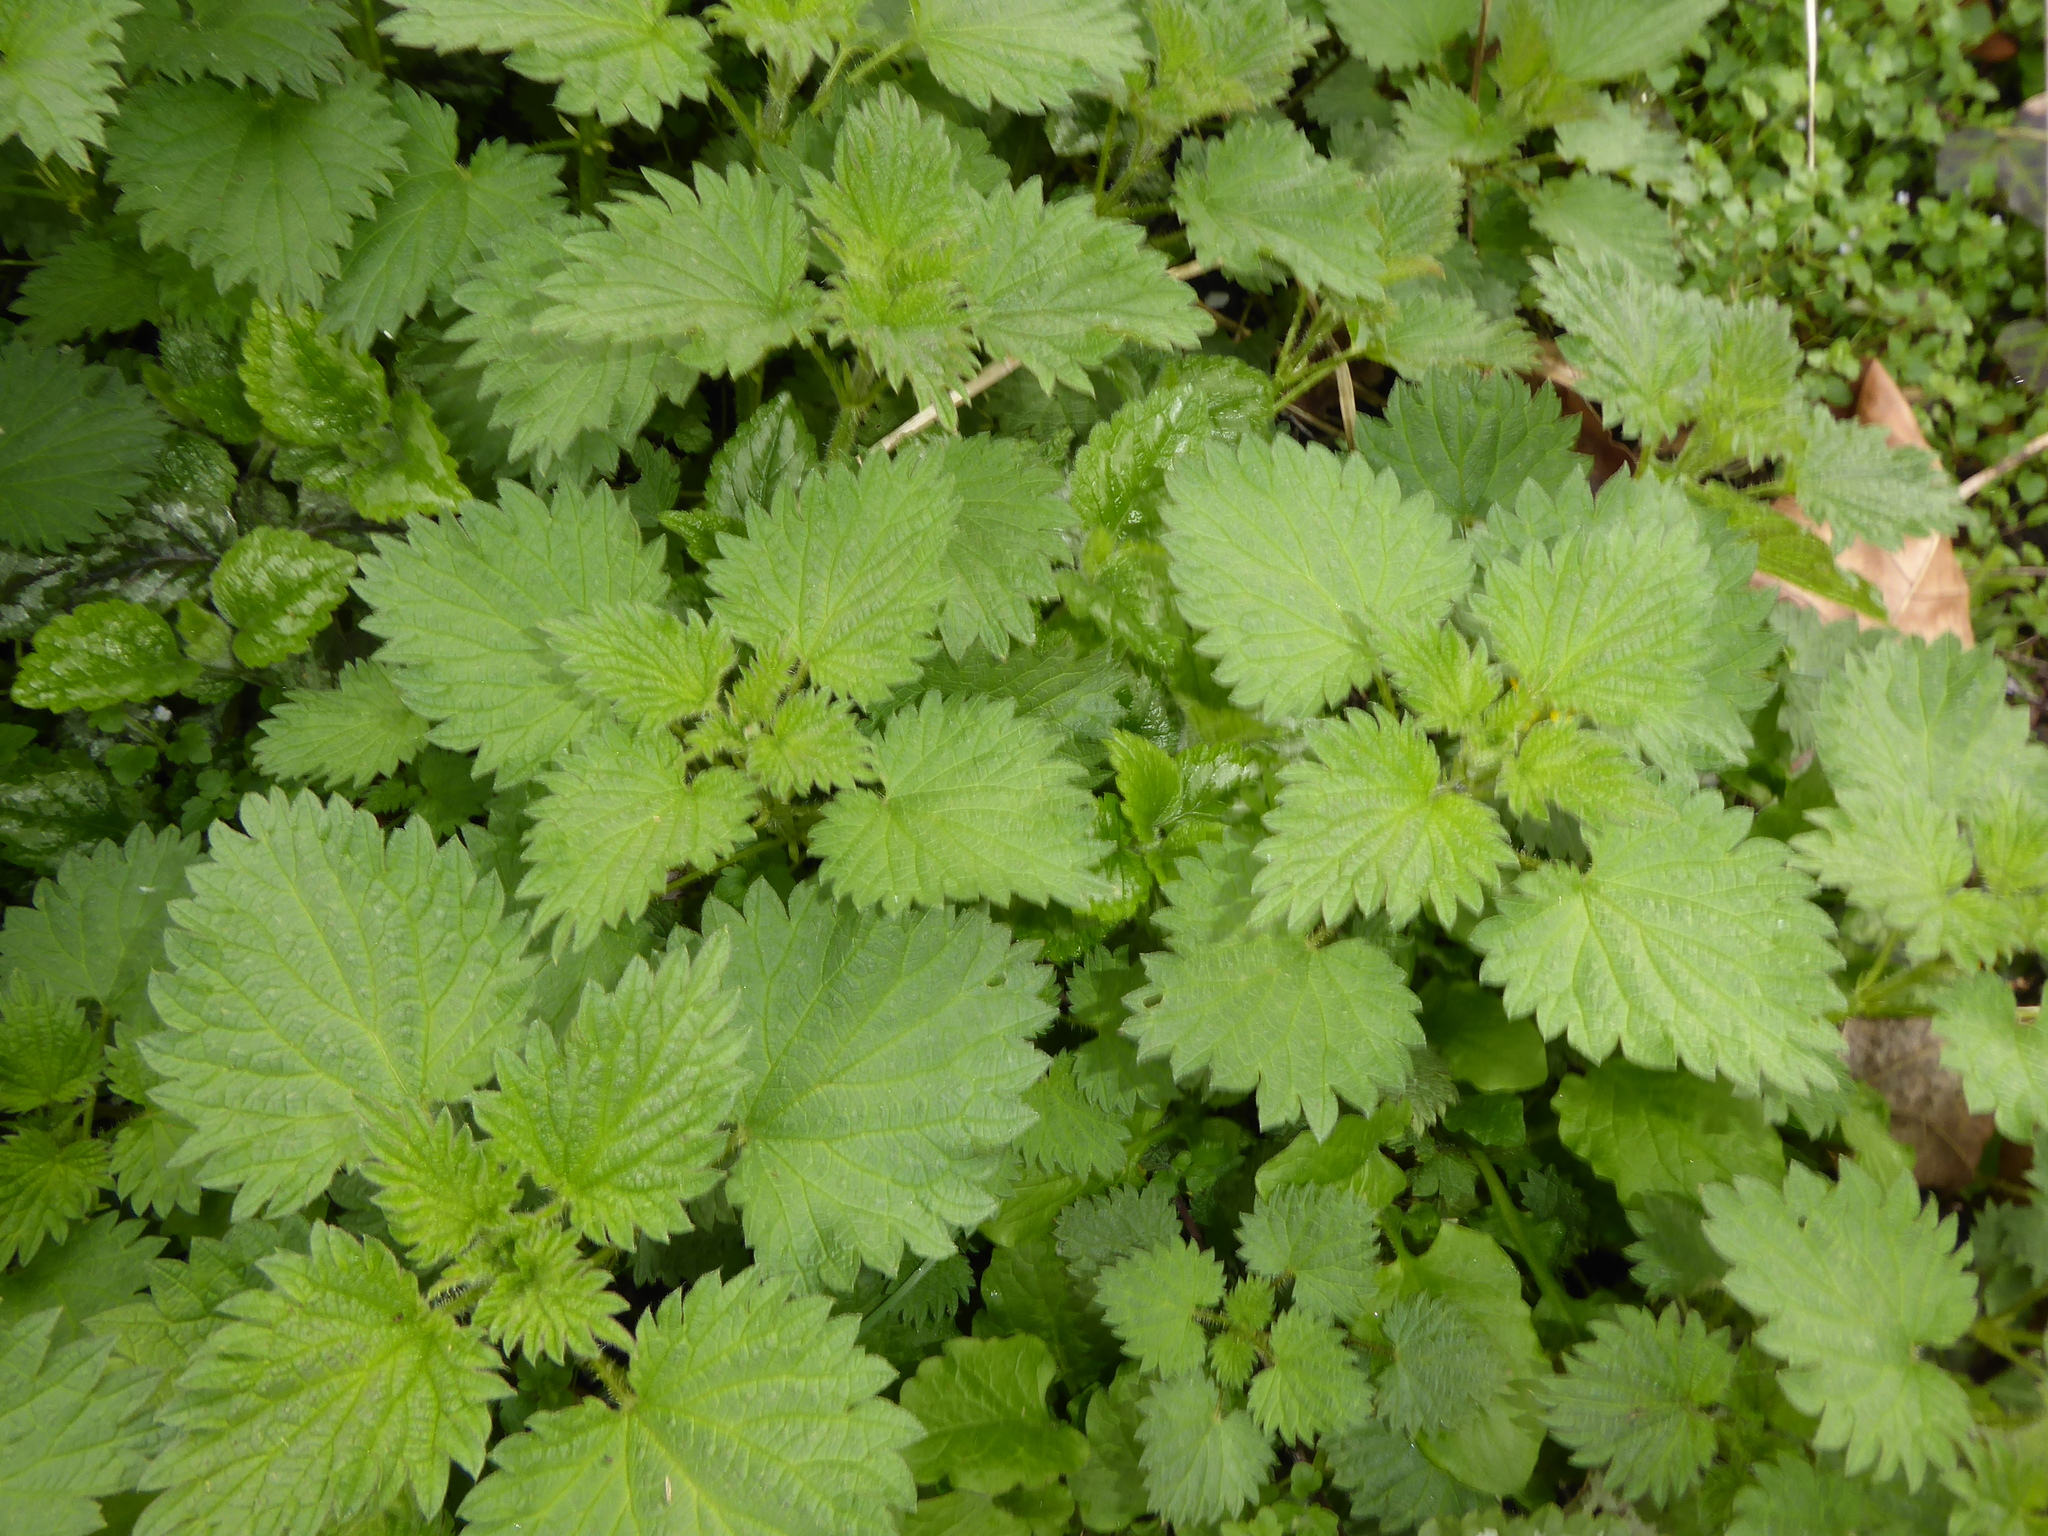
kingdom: Plantae
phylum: Tracheophyta
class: Magnoliopsida
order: Rosales
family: Urticaceae
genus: Urtica
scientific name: Urtica dioica
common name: Common nettle
